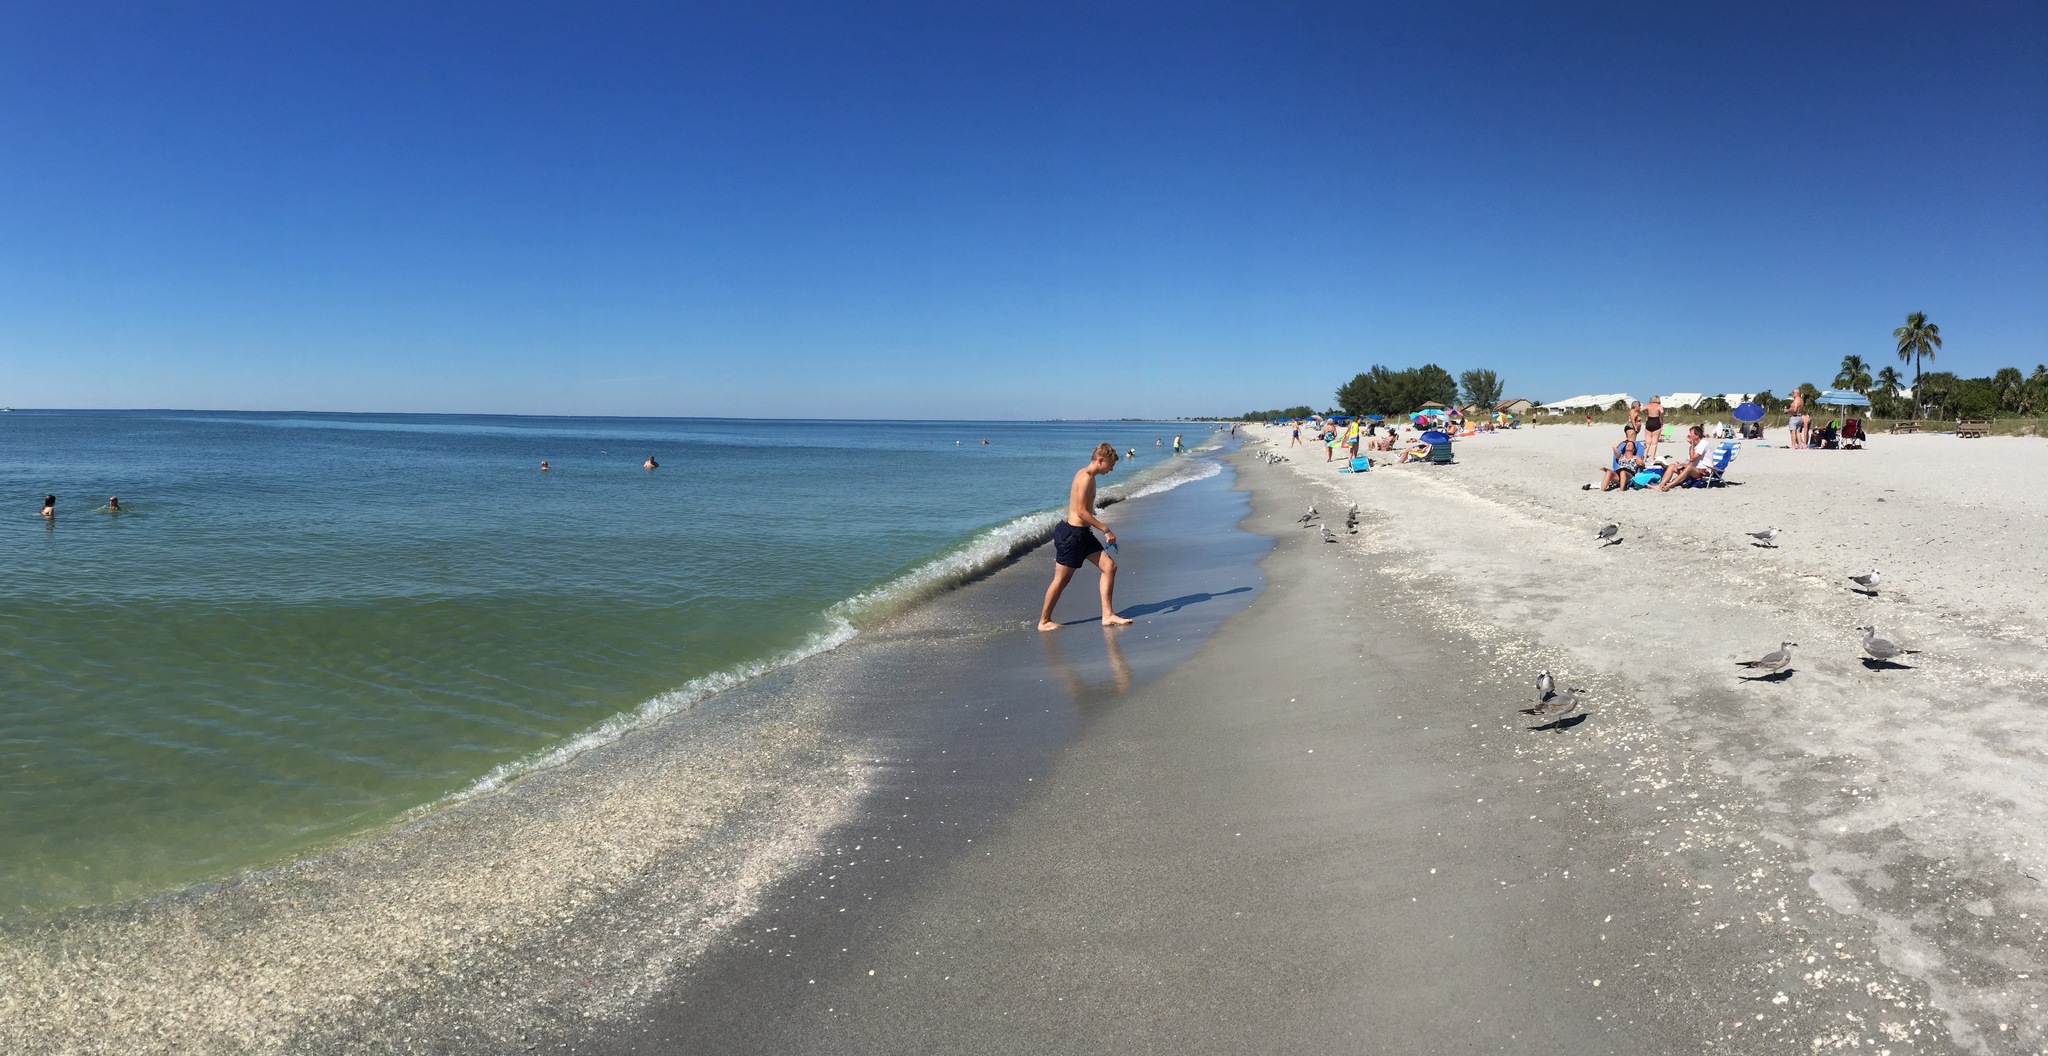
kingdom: Animalia
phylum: Chordata
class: Aves
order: Charadriiformes
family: Laridae
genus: Leucophaeus
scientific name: Leucophaeus atricilla
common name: Laughing gull
